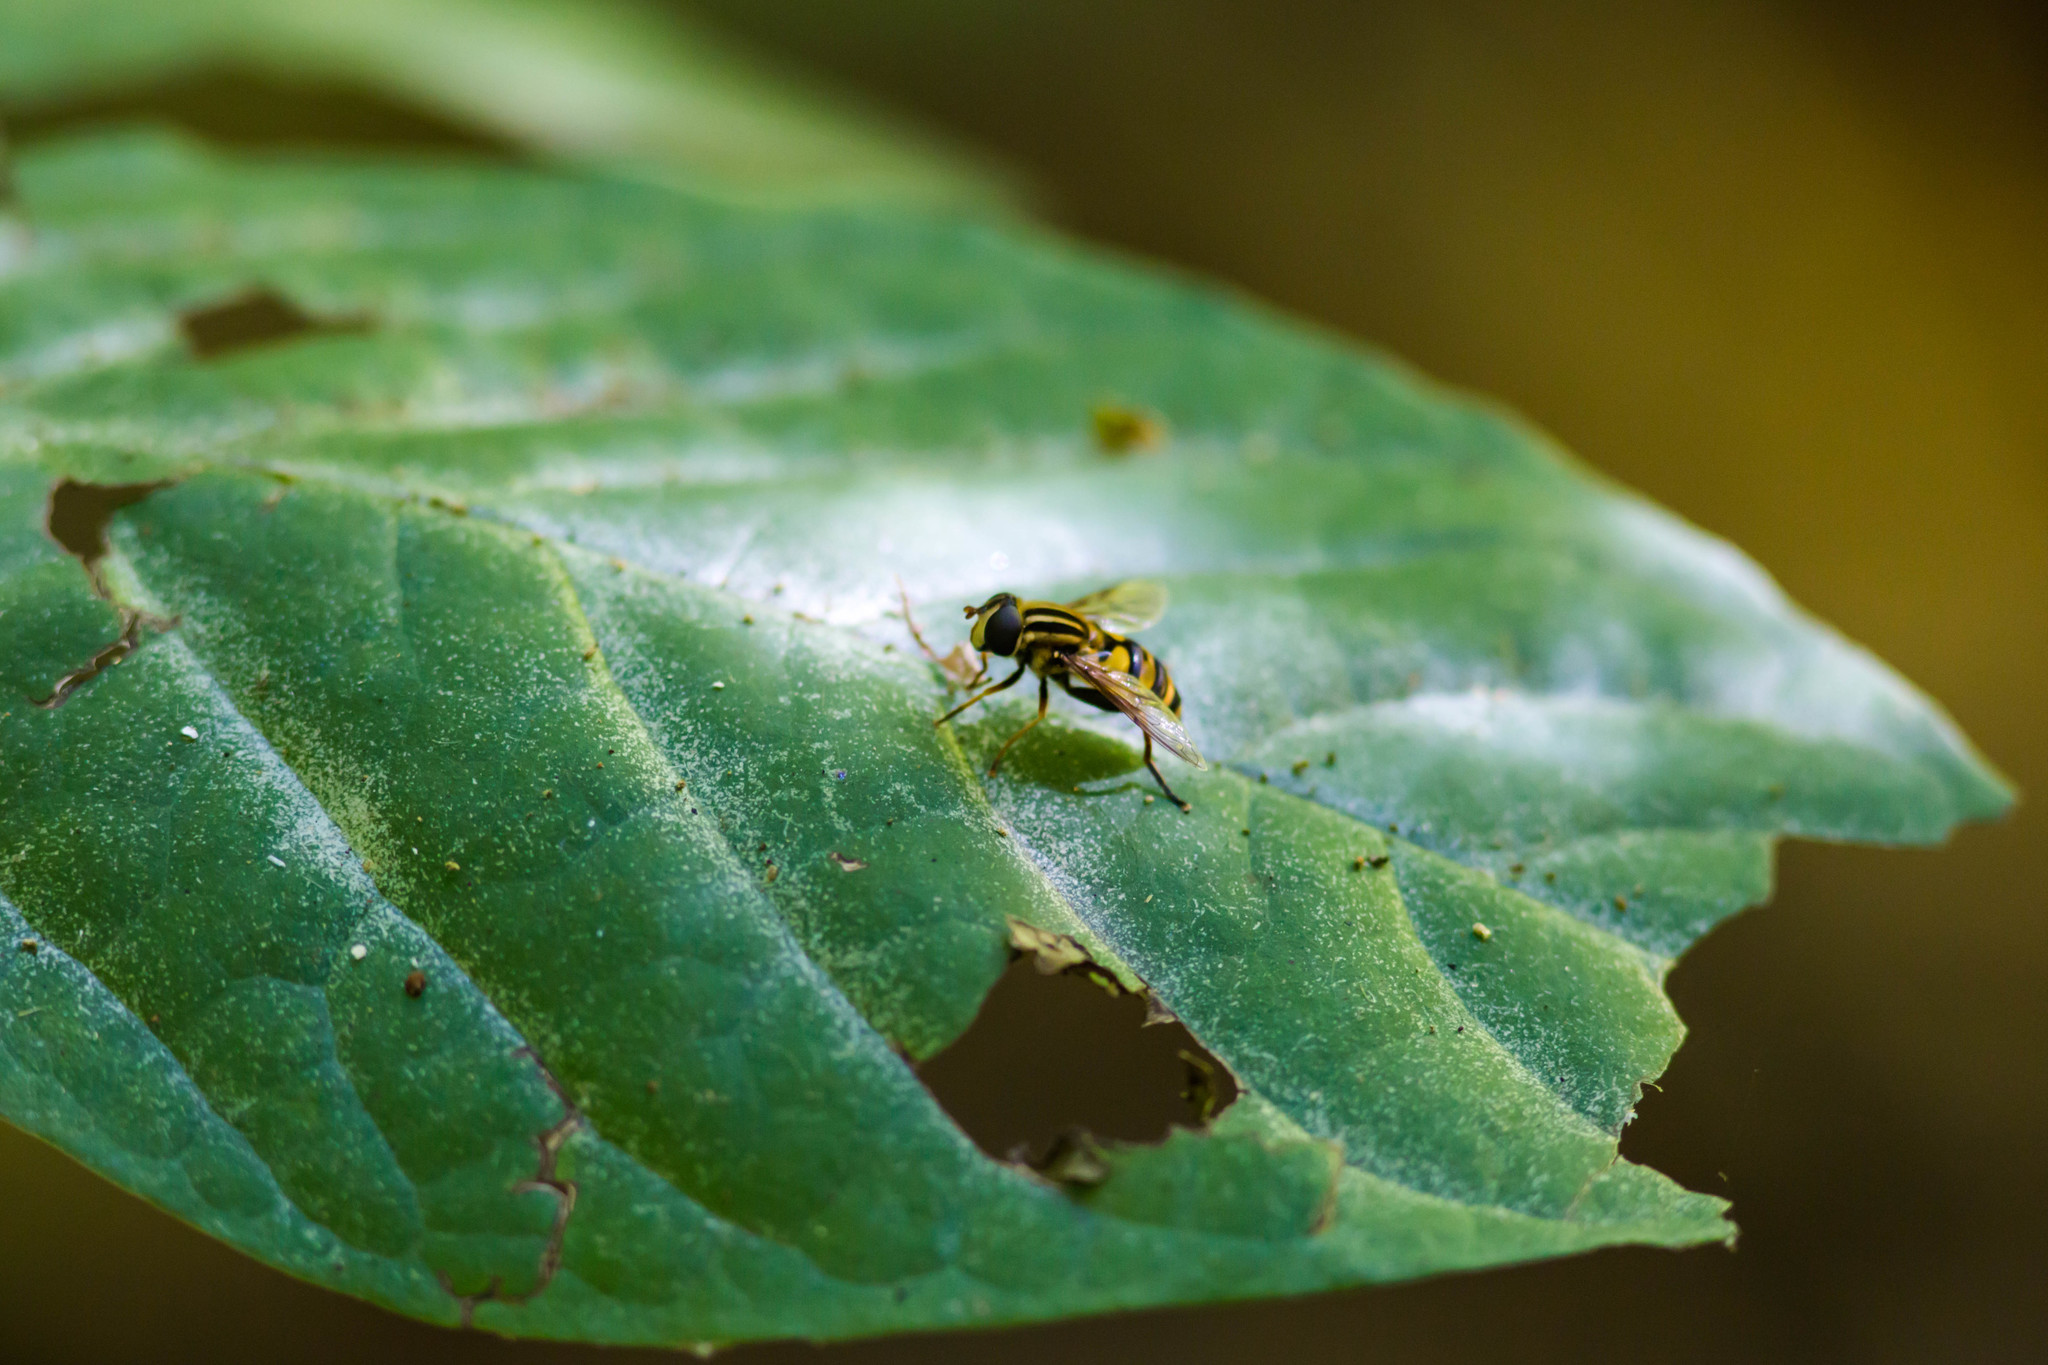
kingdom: Animalia
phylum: Arthropoda
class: Insecta
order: Diptera
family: Syrphidae
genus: Helophilus
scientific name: Helophilus fasciatus
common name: Narrow-headed marsh fly
